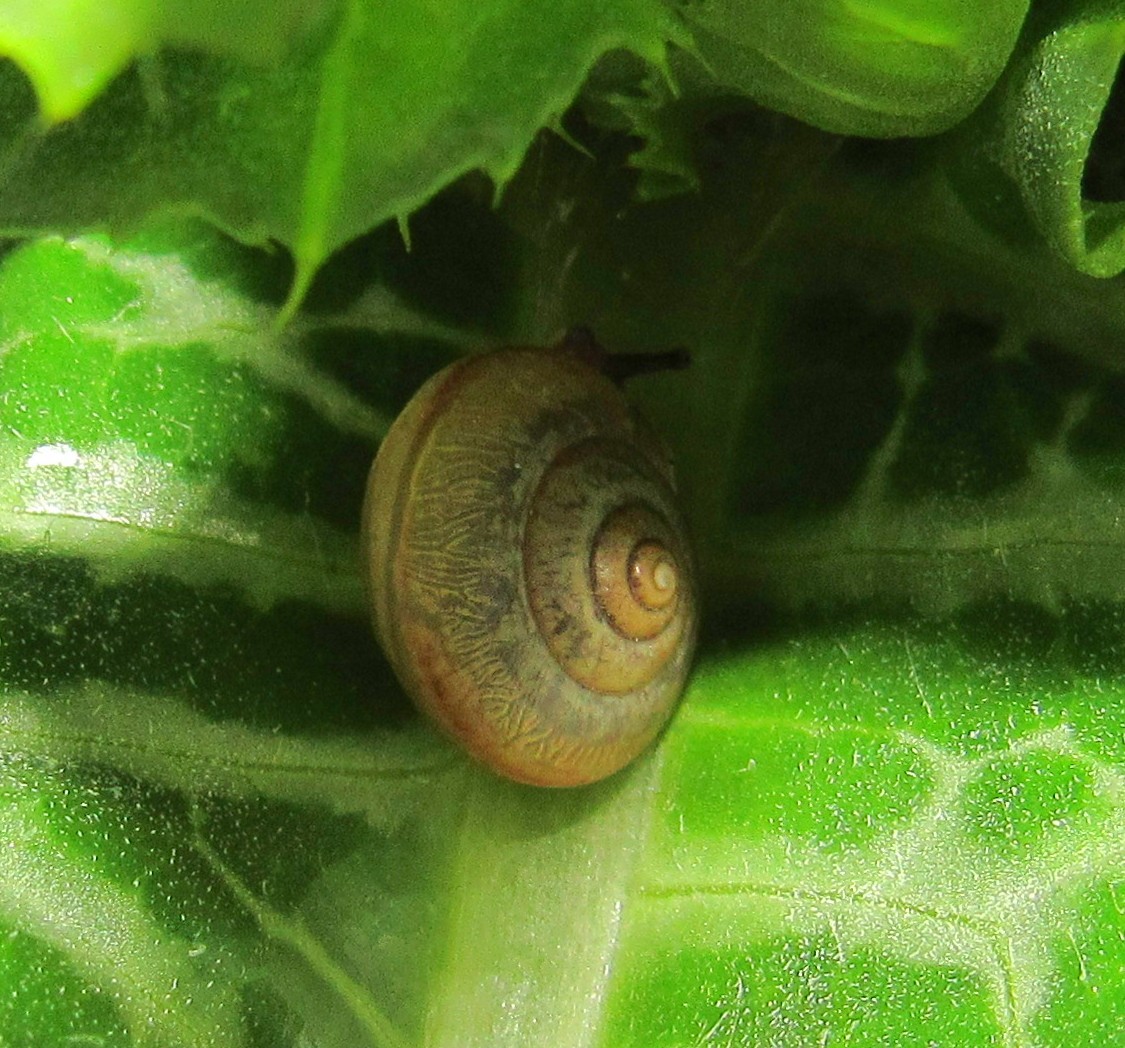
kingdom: Animalia
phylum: Mollusca
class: Gastropoda
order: Stylommatophora
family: Camaenidae
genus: Bradybaena
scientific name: Bradybaena similaris
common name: Asian trampsnail
